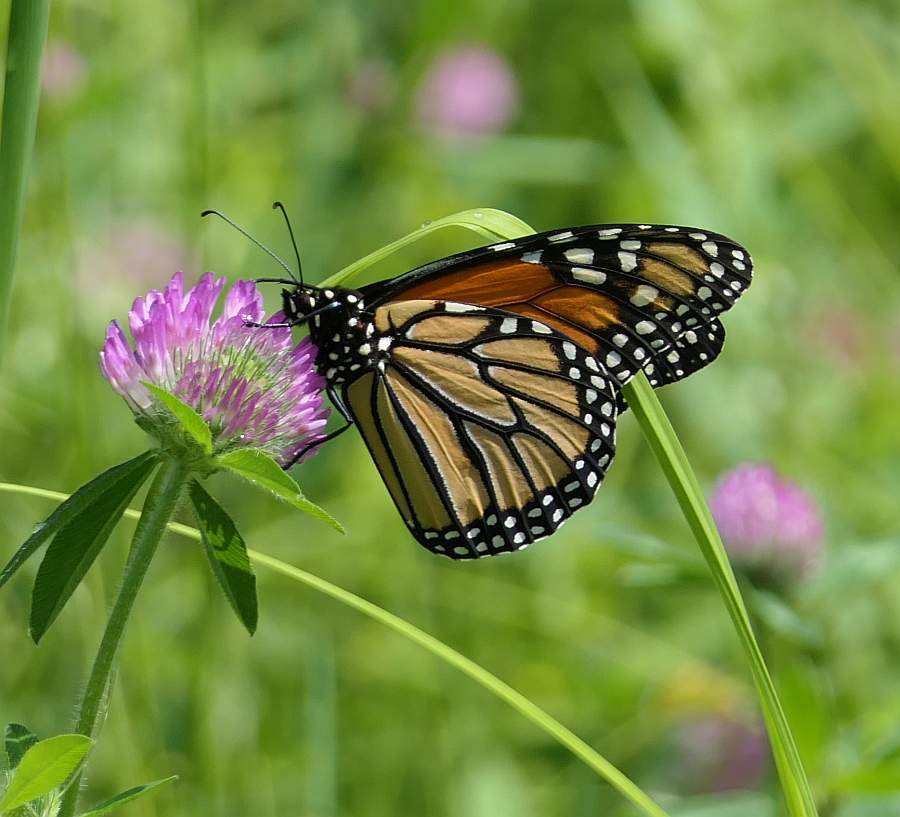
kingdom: Animalia
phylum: Arthropoda
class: Insecta
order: Lepidoptera
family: Nymphalidae
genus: Danaus
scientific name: Danaus plexippus
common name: Monarch
